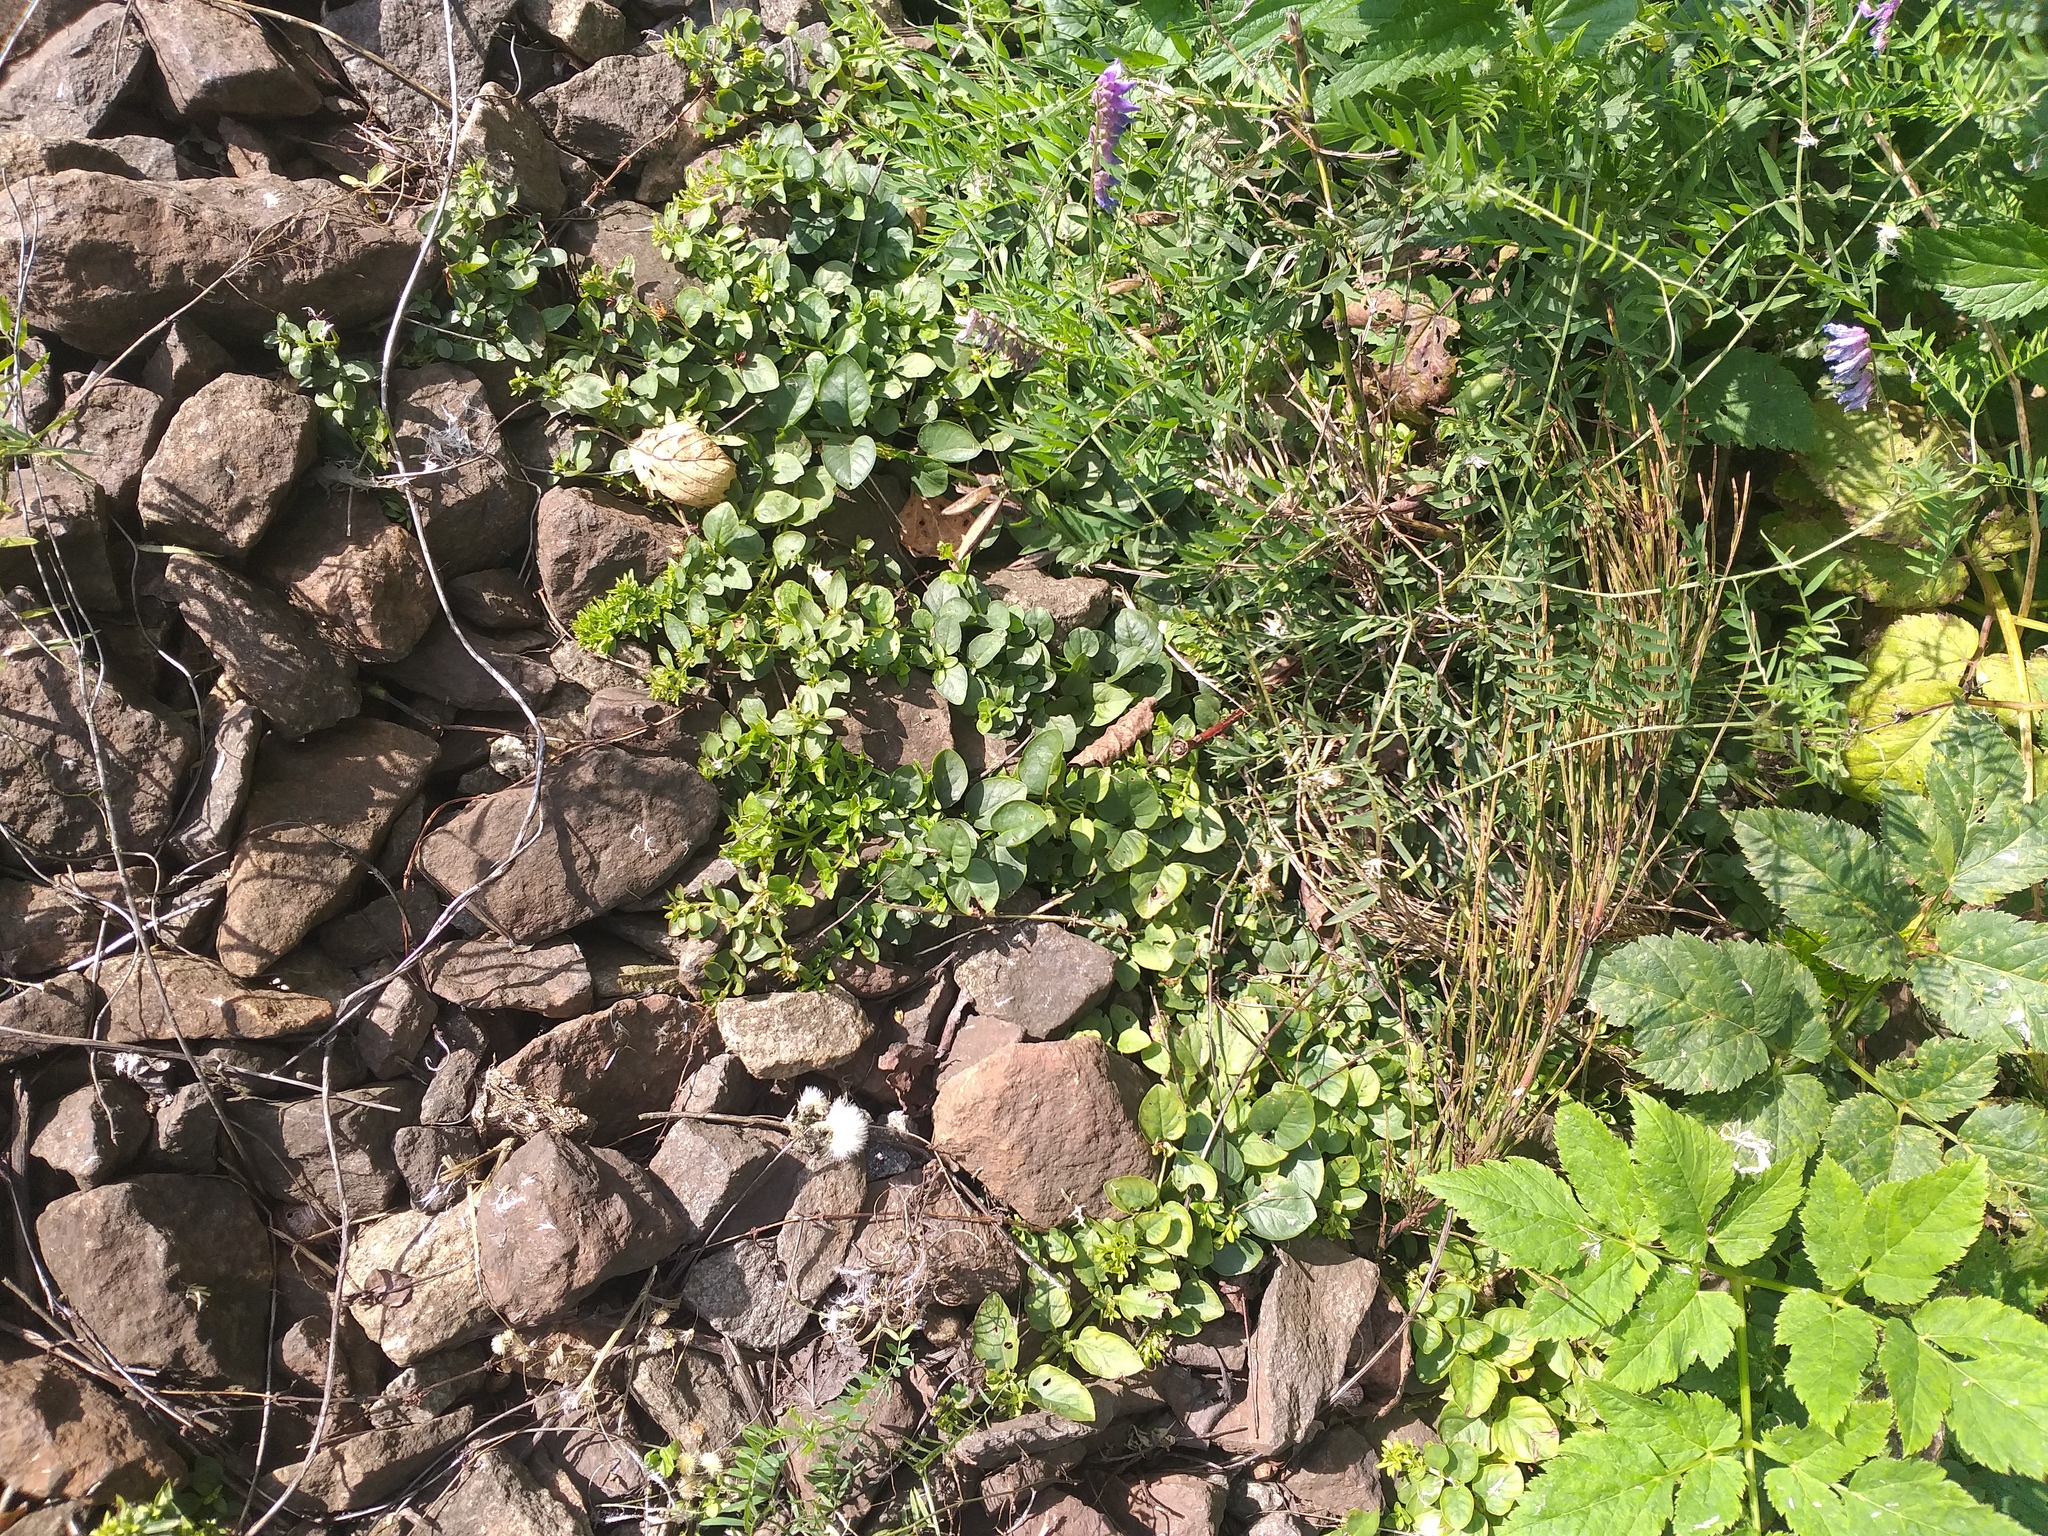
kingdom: Plantae
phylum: Tracheophyta
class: Magnoliopsida
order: Ericales
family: Primulaceae
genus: Lysimachia
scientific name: Lysimachia nummularia
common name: Moneywort
